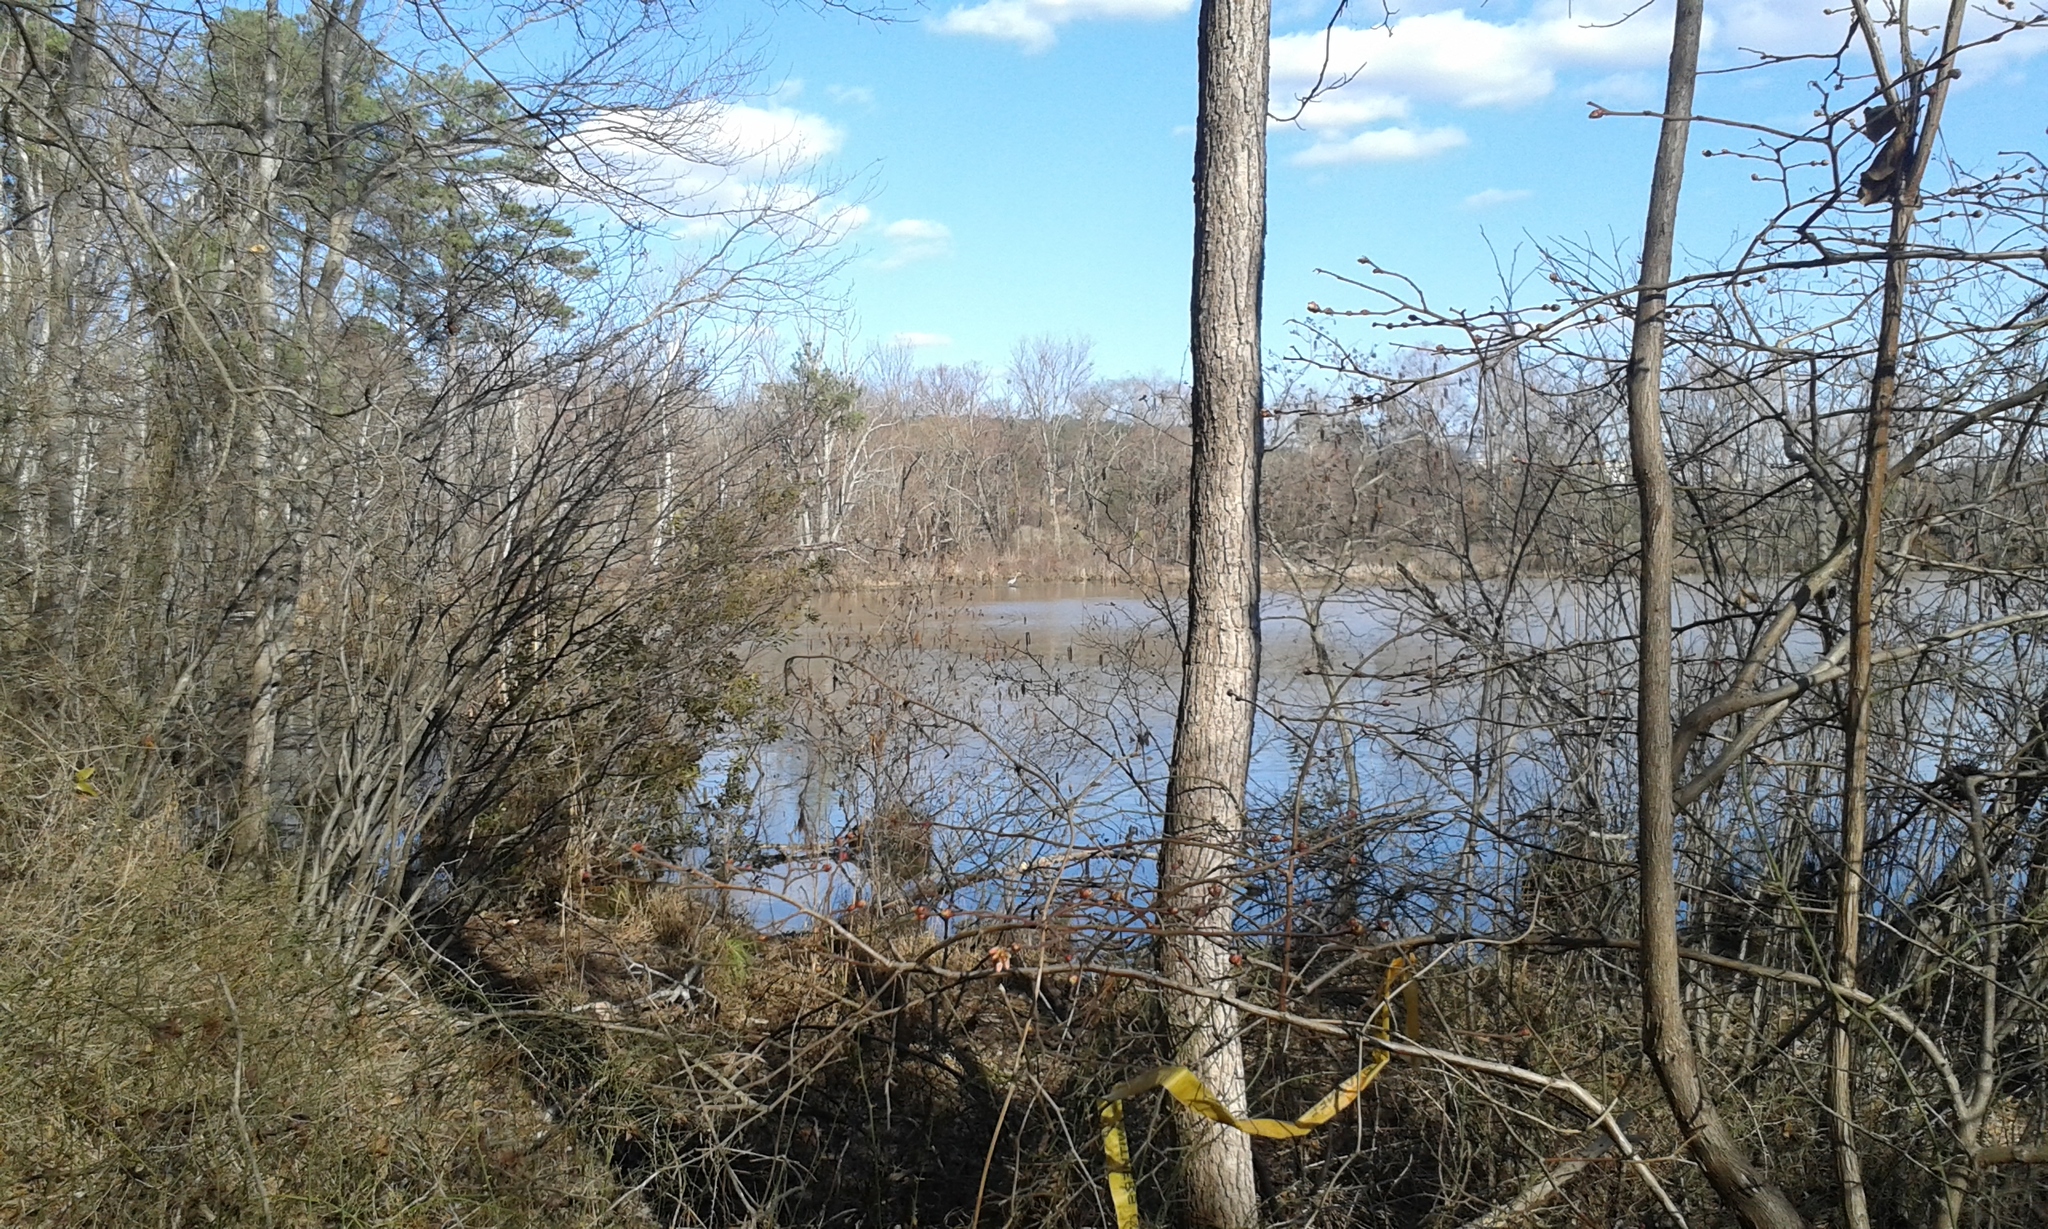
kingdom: Animalia
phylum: Chordata
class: Aves
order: Pelecaniformes
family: Ardeidae
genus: Ardea
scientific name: Ardea herodias
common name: Great blue heron
